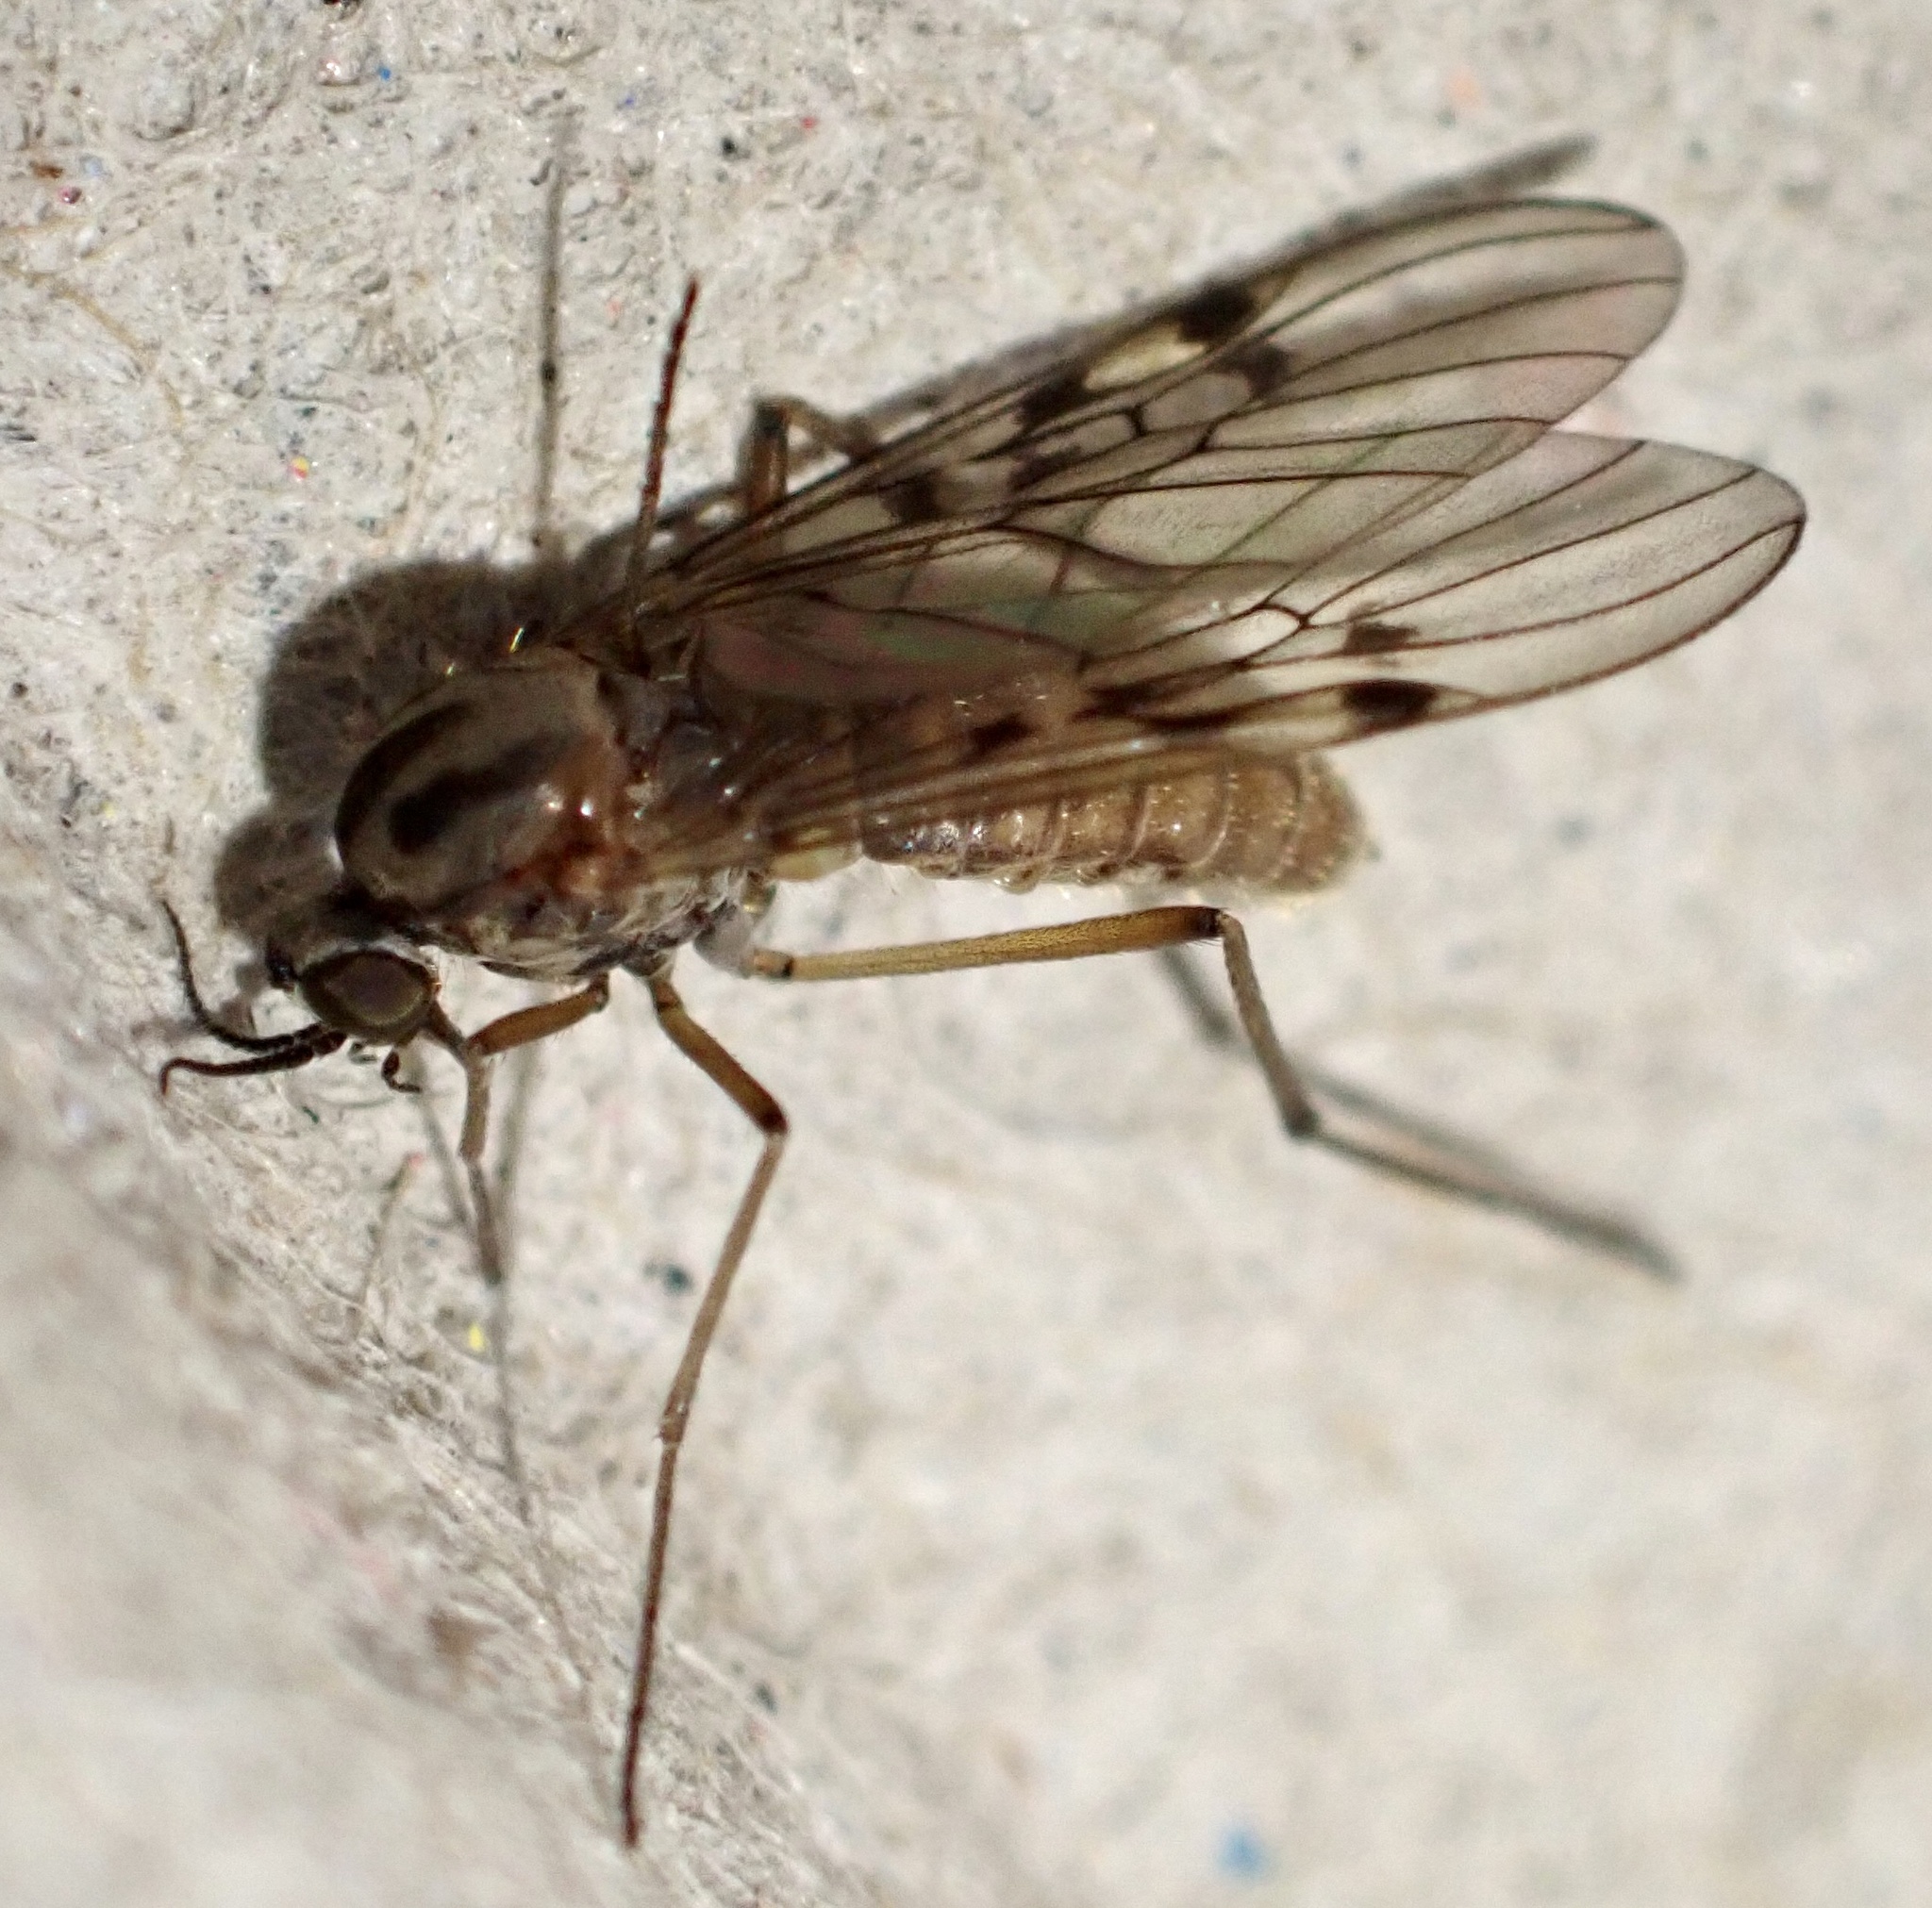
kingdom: Animalia
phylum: Arthropoda
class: Insecta
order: Diptera
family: Anisopodidae
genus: Sylvicola
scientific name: Sylvicola punctatus
